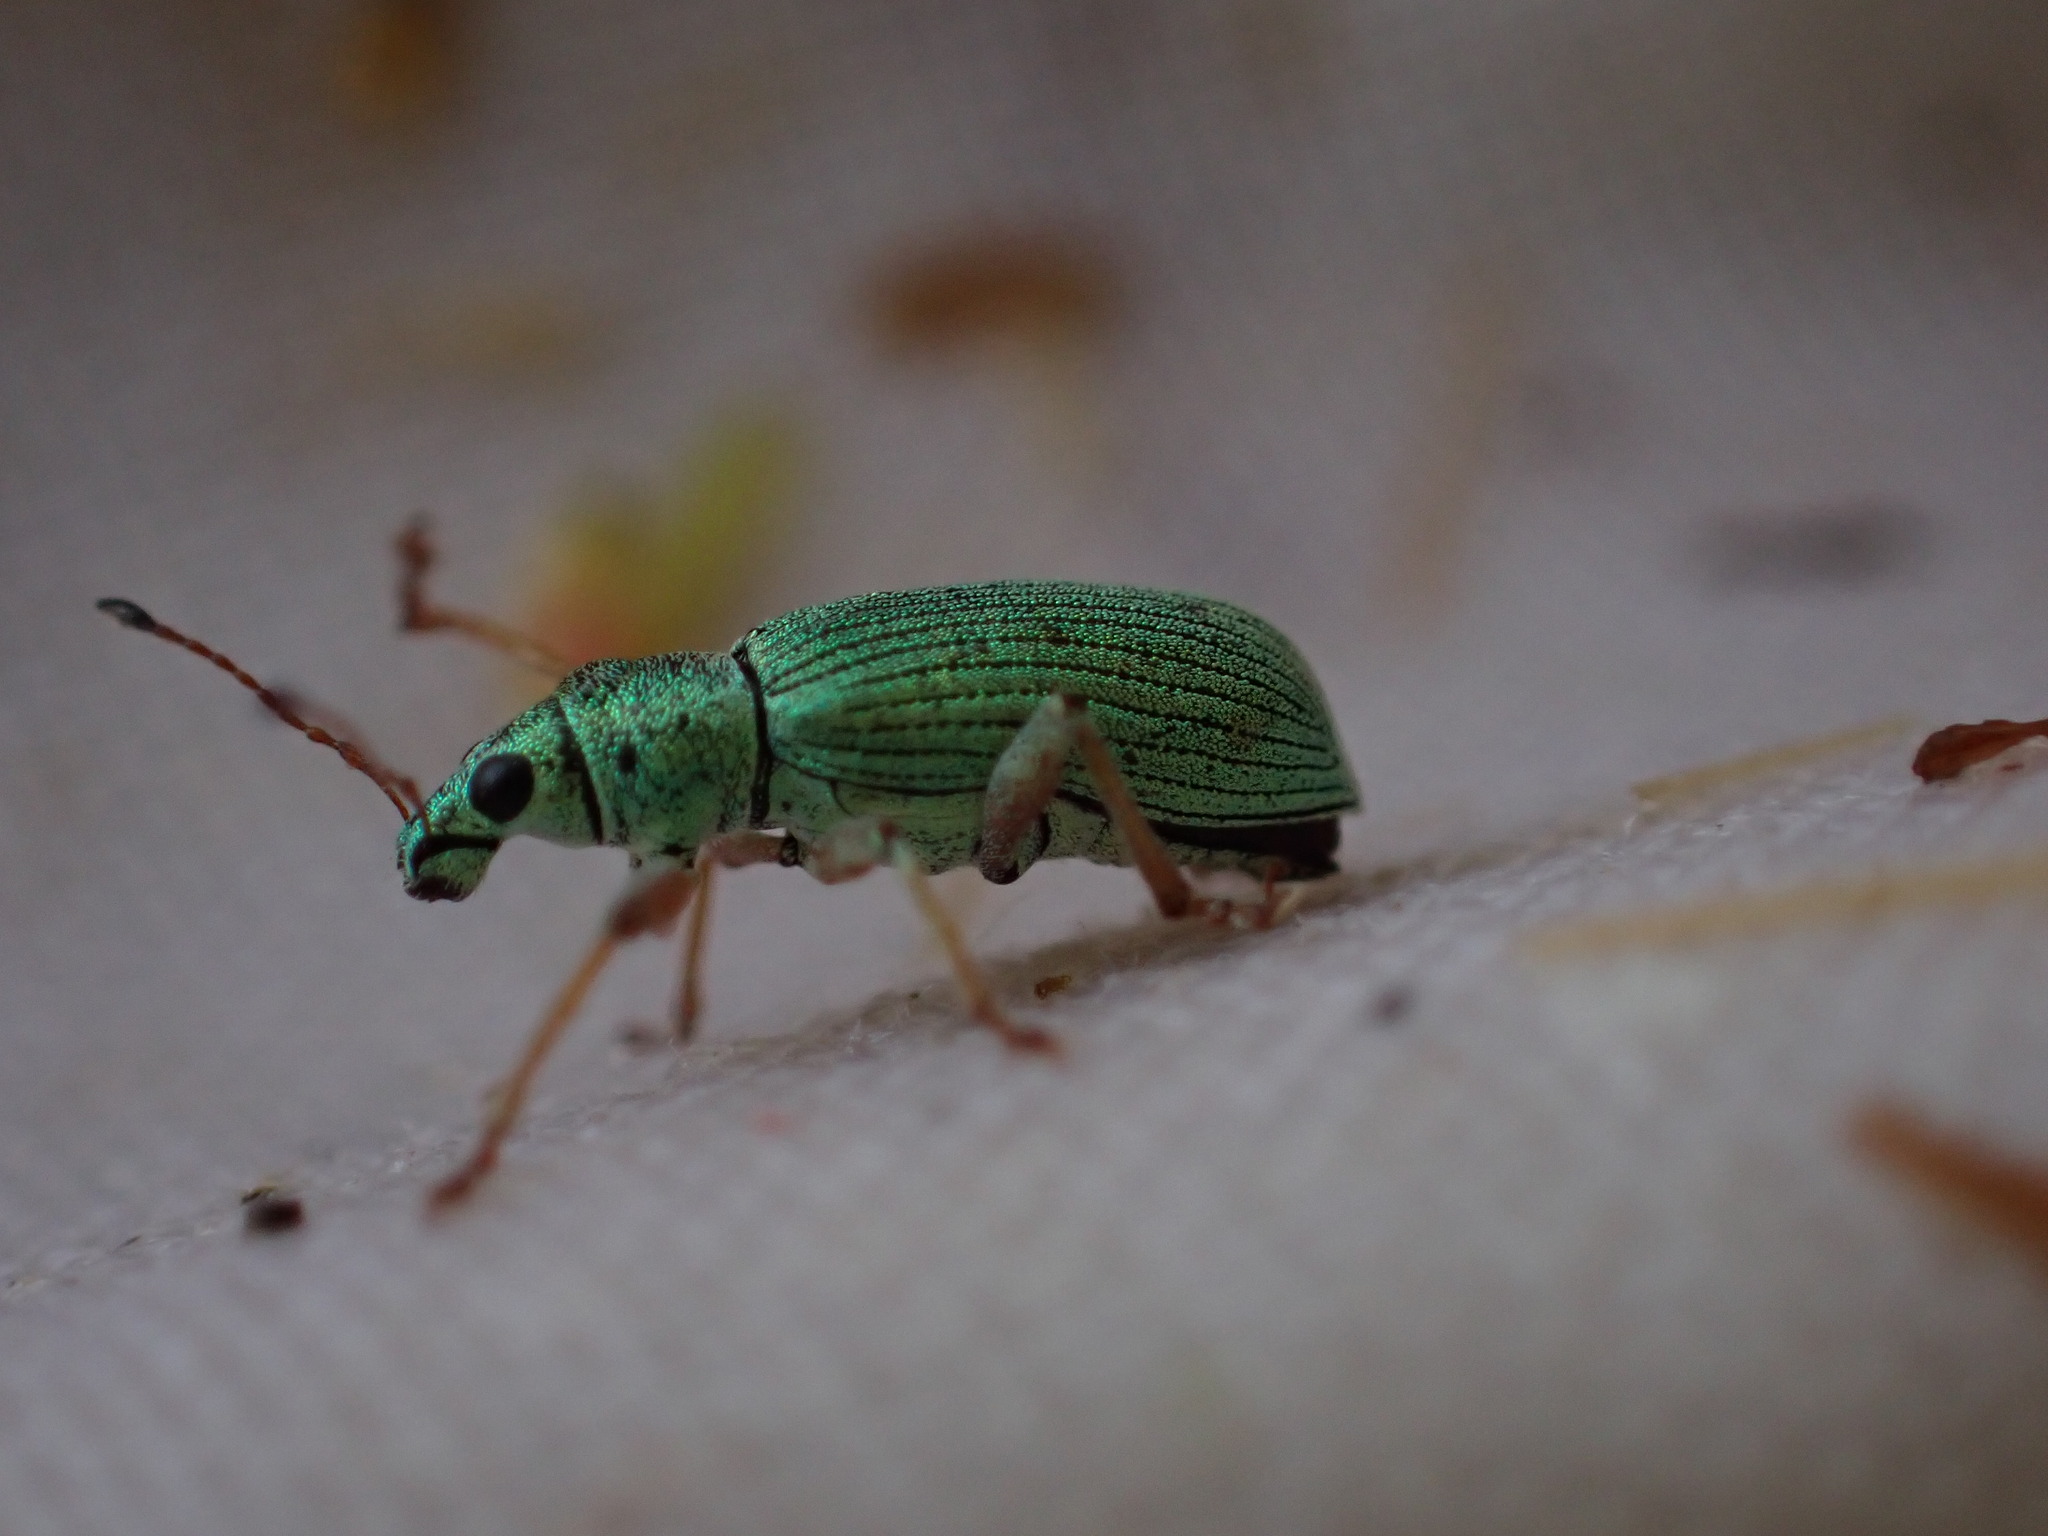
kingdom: Animalia
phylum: Arthropoda
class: Insecta
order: Coleoptera
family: Curculionidae
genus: Polydrusus
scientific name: Polydrusus formosus
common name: Weevil
